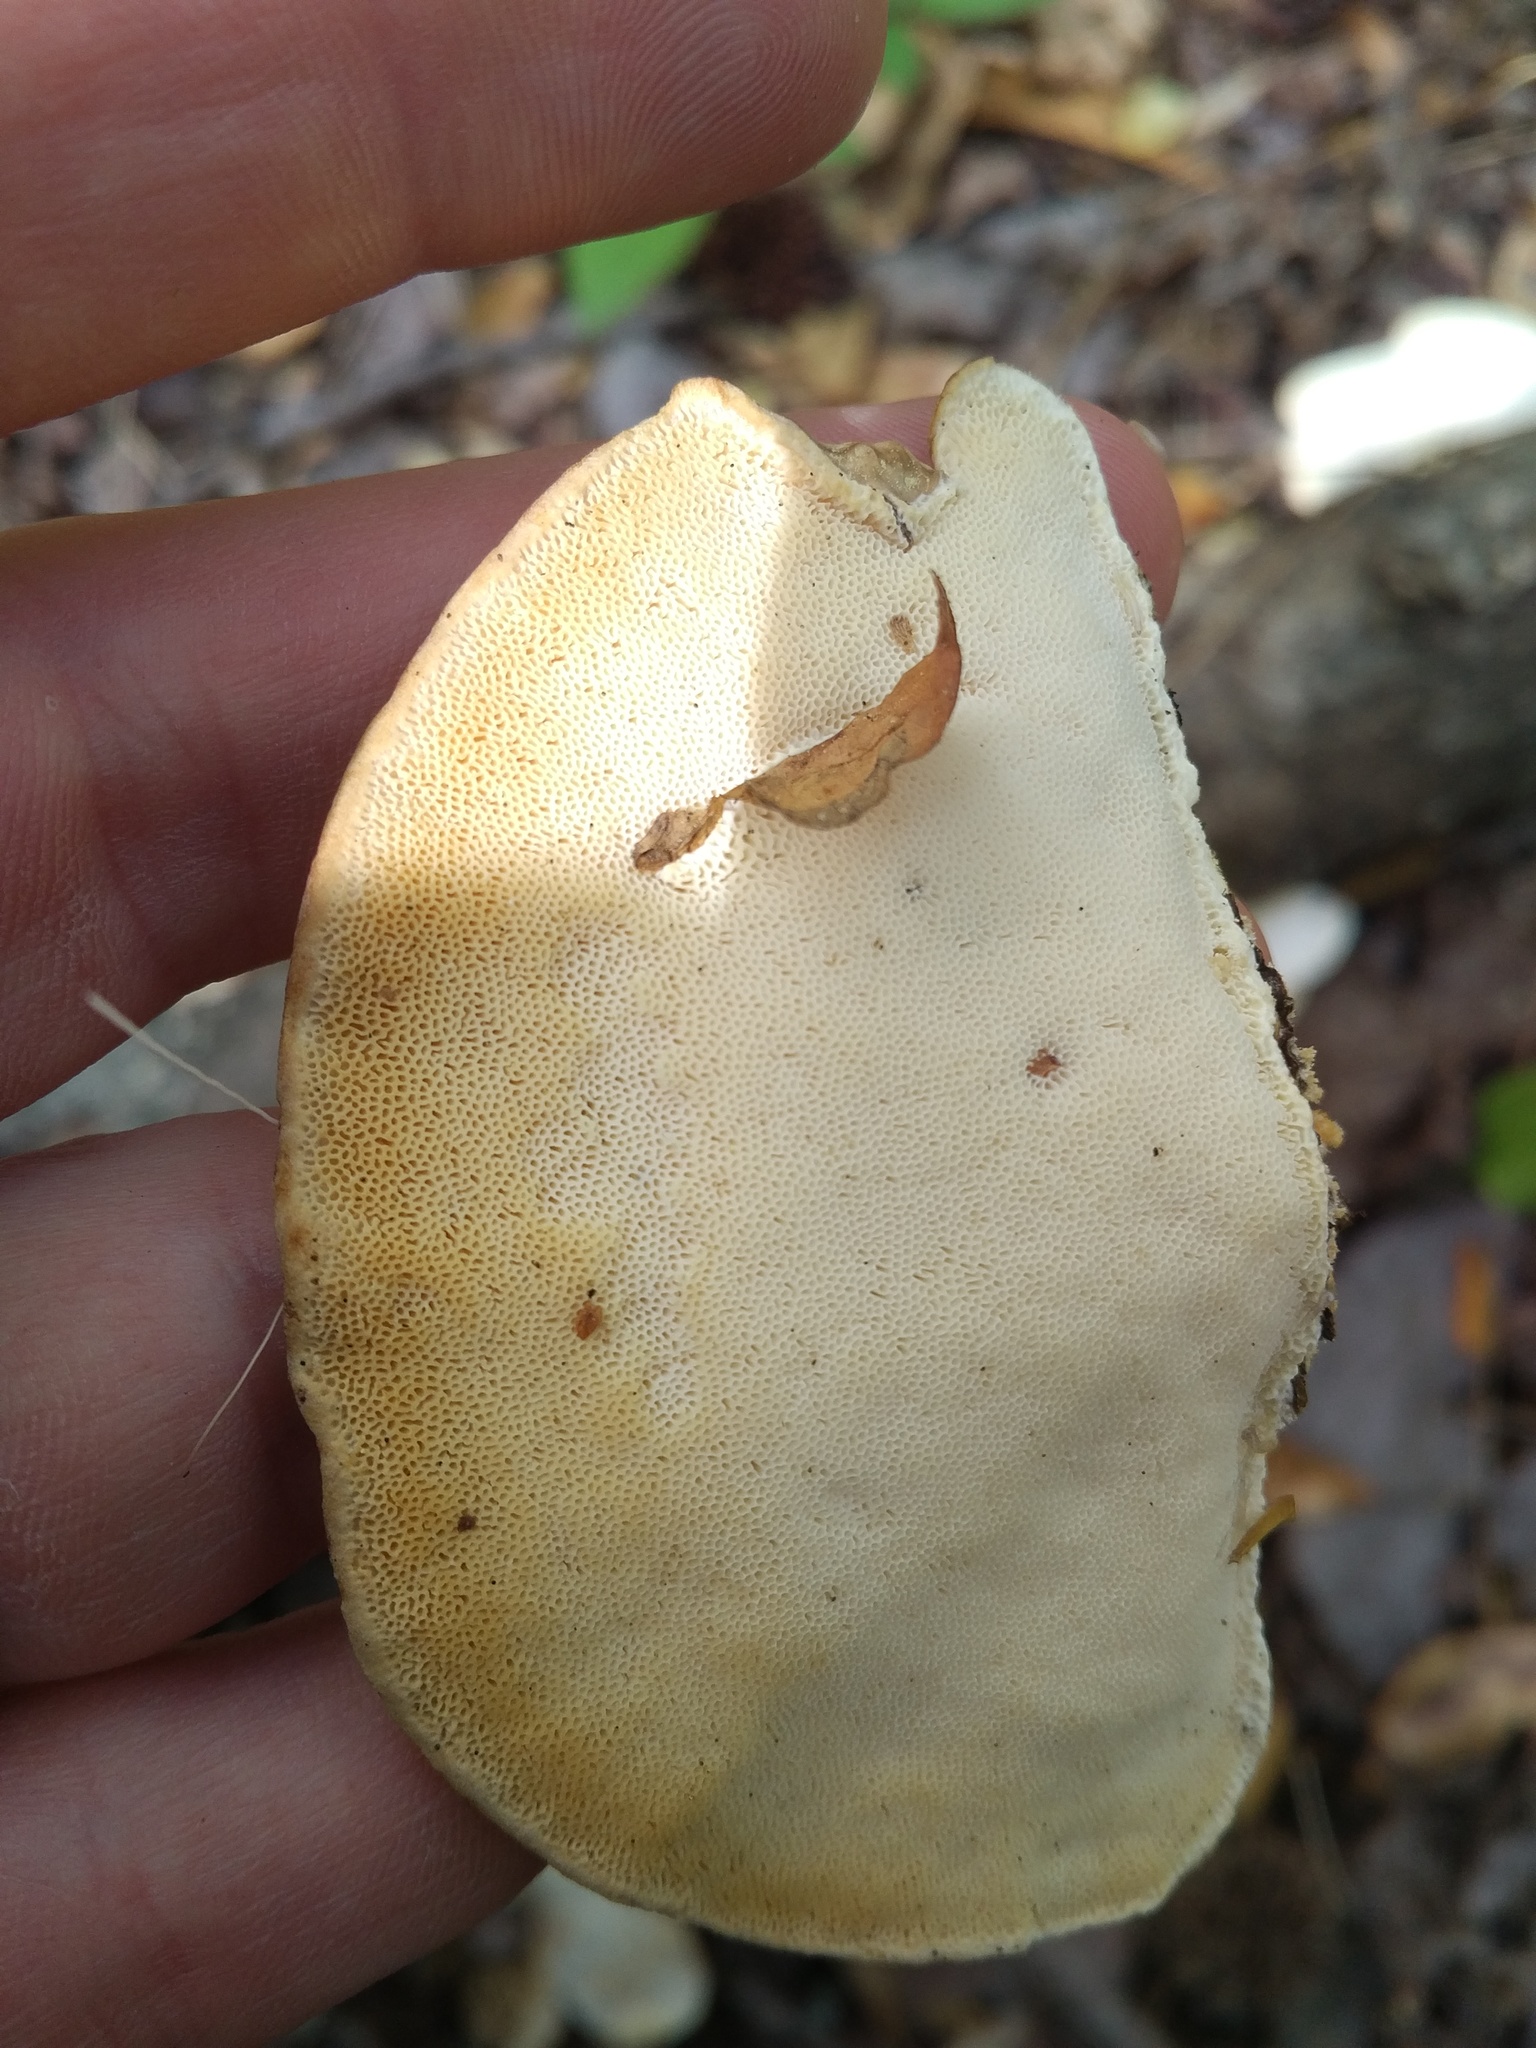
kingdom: Fungi
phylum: Basidiomycota
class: Agaricomycetes
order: Polyporales
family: Polyporaceae
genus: Trametes
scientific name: Trametes lactinea
